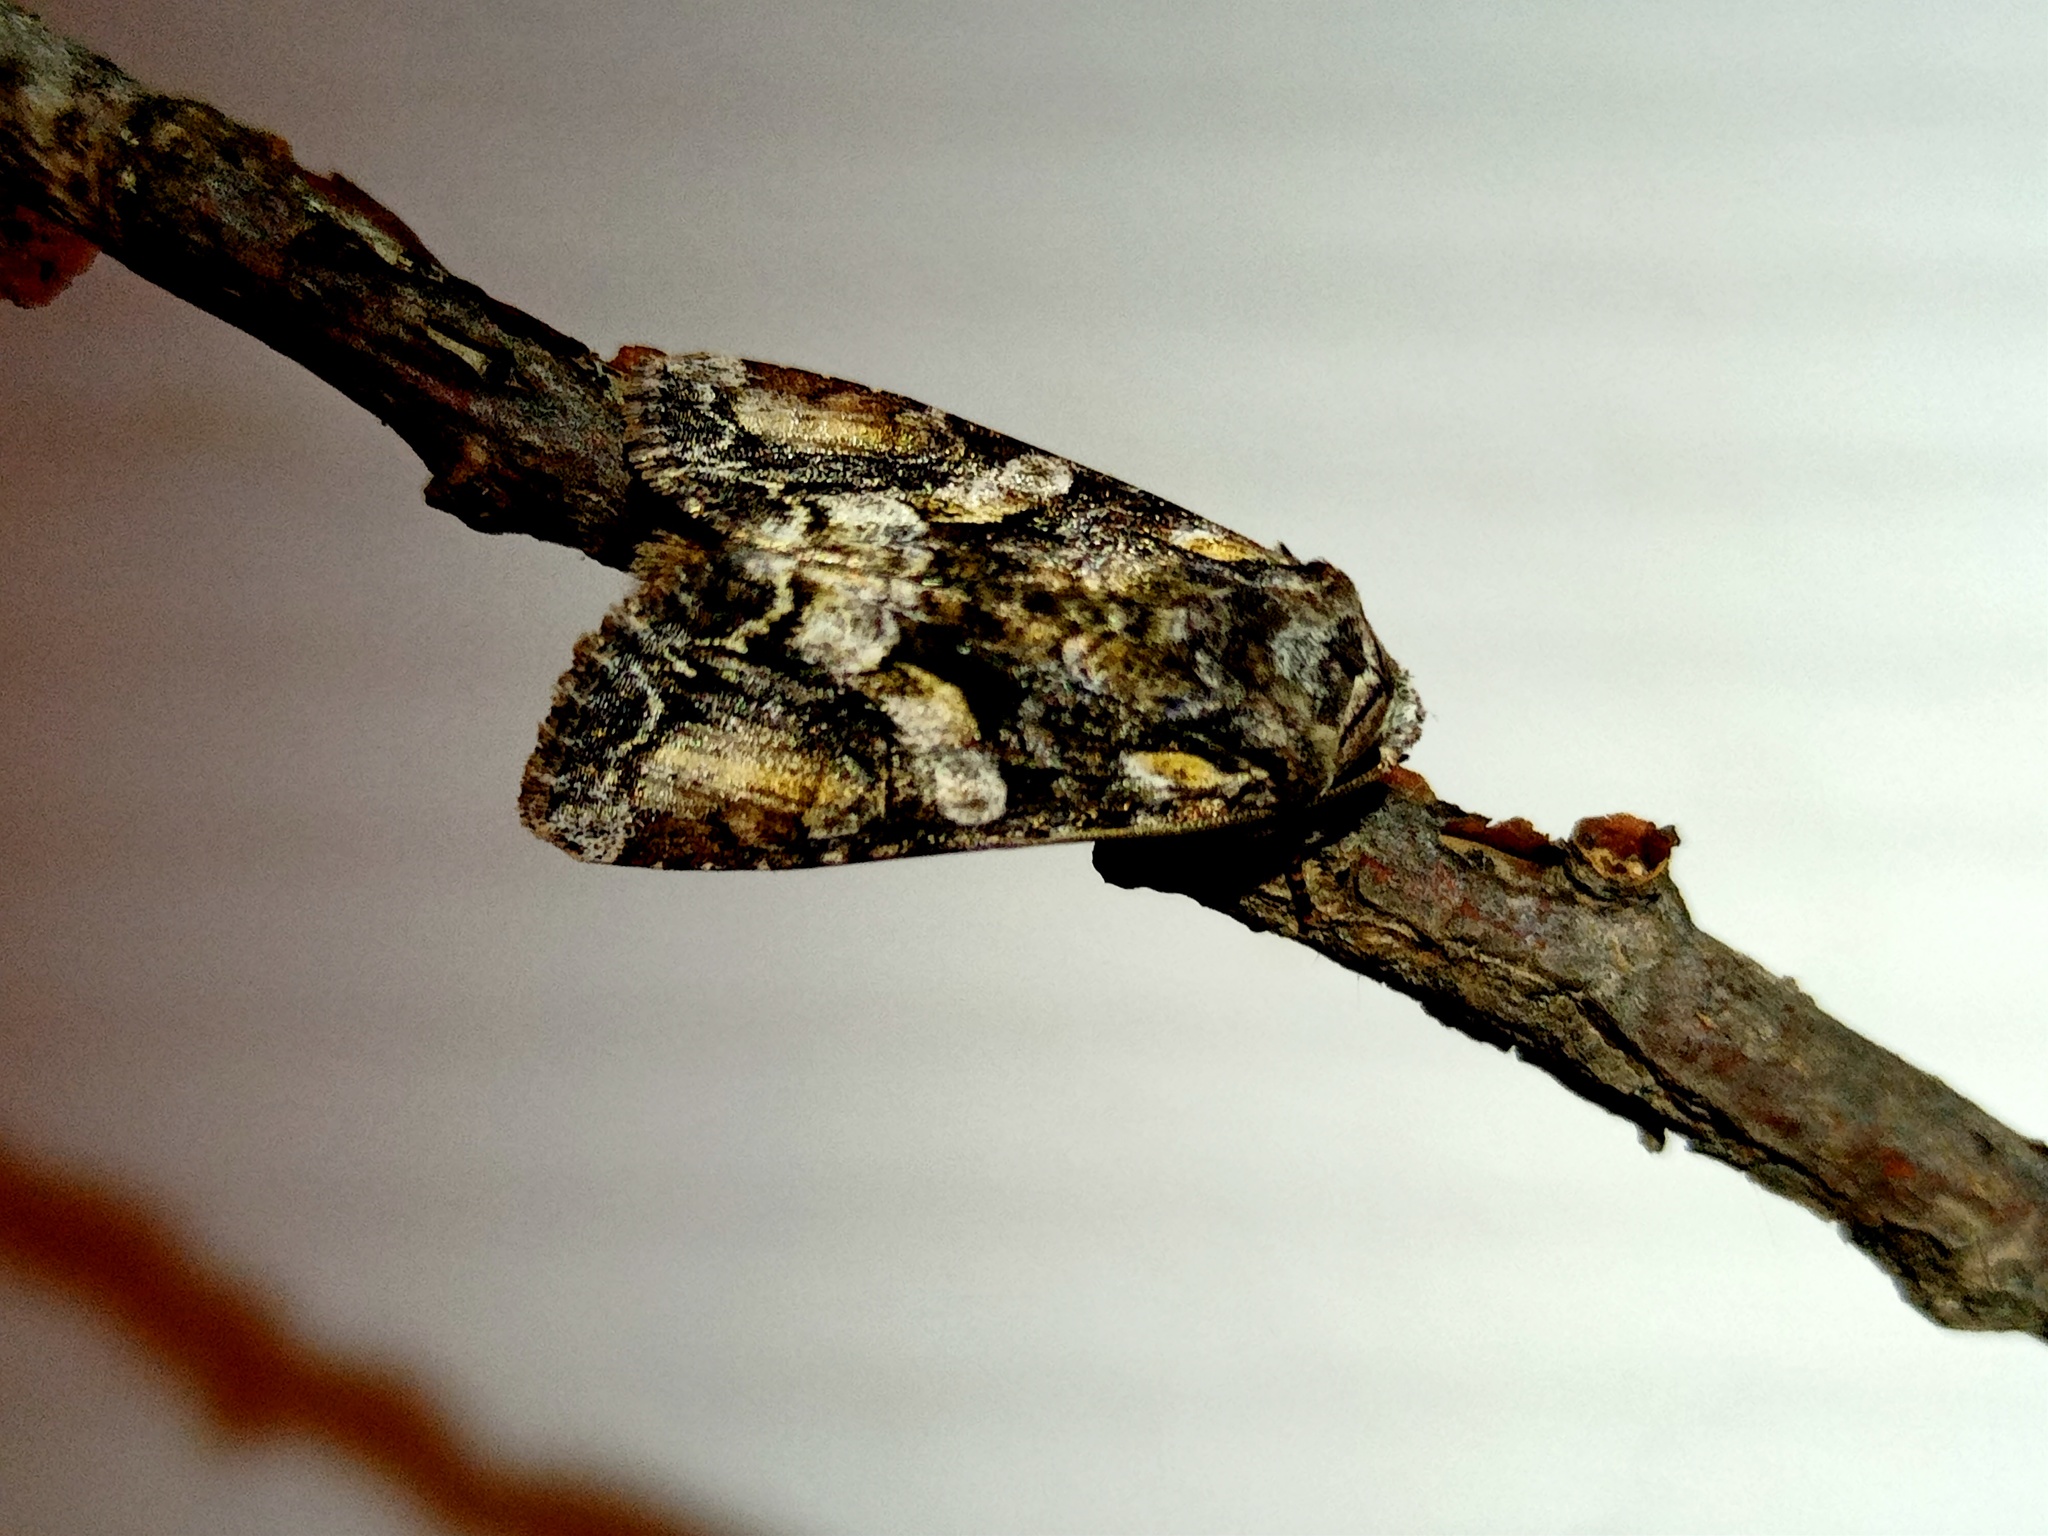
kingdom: Animalia
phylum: Arthropoda
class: Insecta
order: Lepidoptera
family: Noctuidae
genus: Lacanobia
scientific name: Lacanobia contigua
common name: Beautiful brocade
